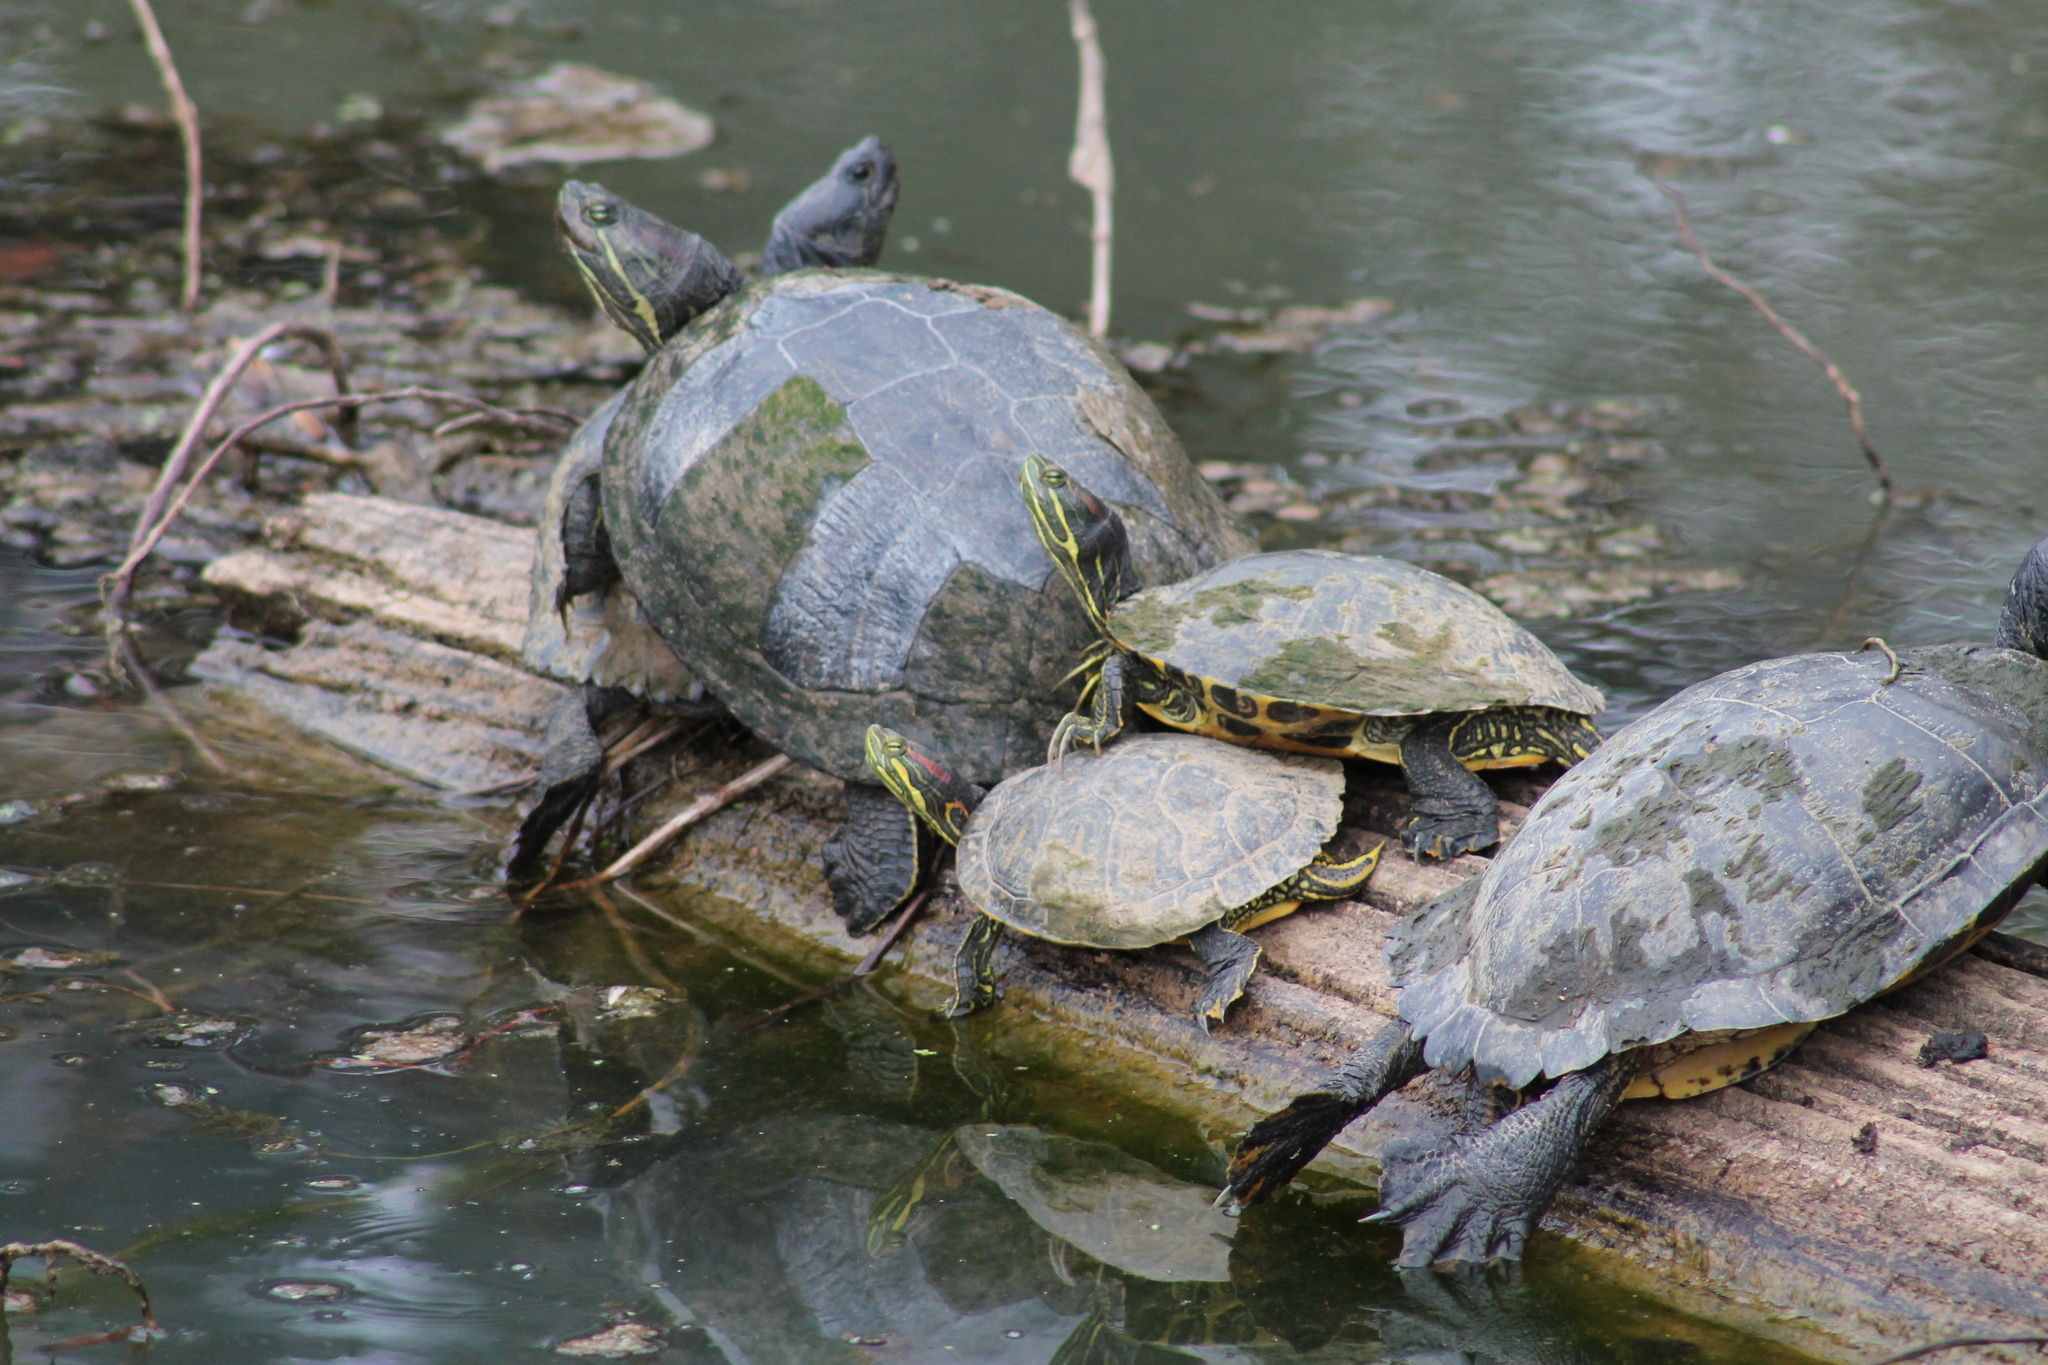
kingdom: Animalia
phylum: Chordata
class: Testudines
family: Emydidae
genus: Trachemys
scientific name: Trachemys scripta
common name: Slider
